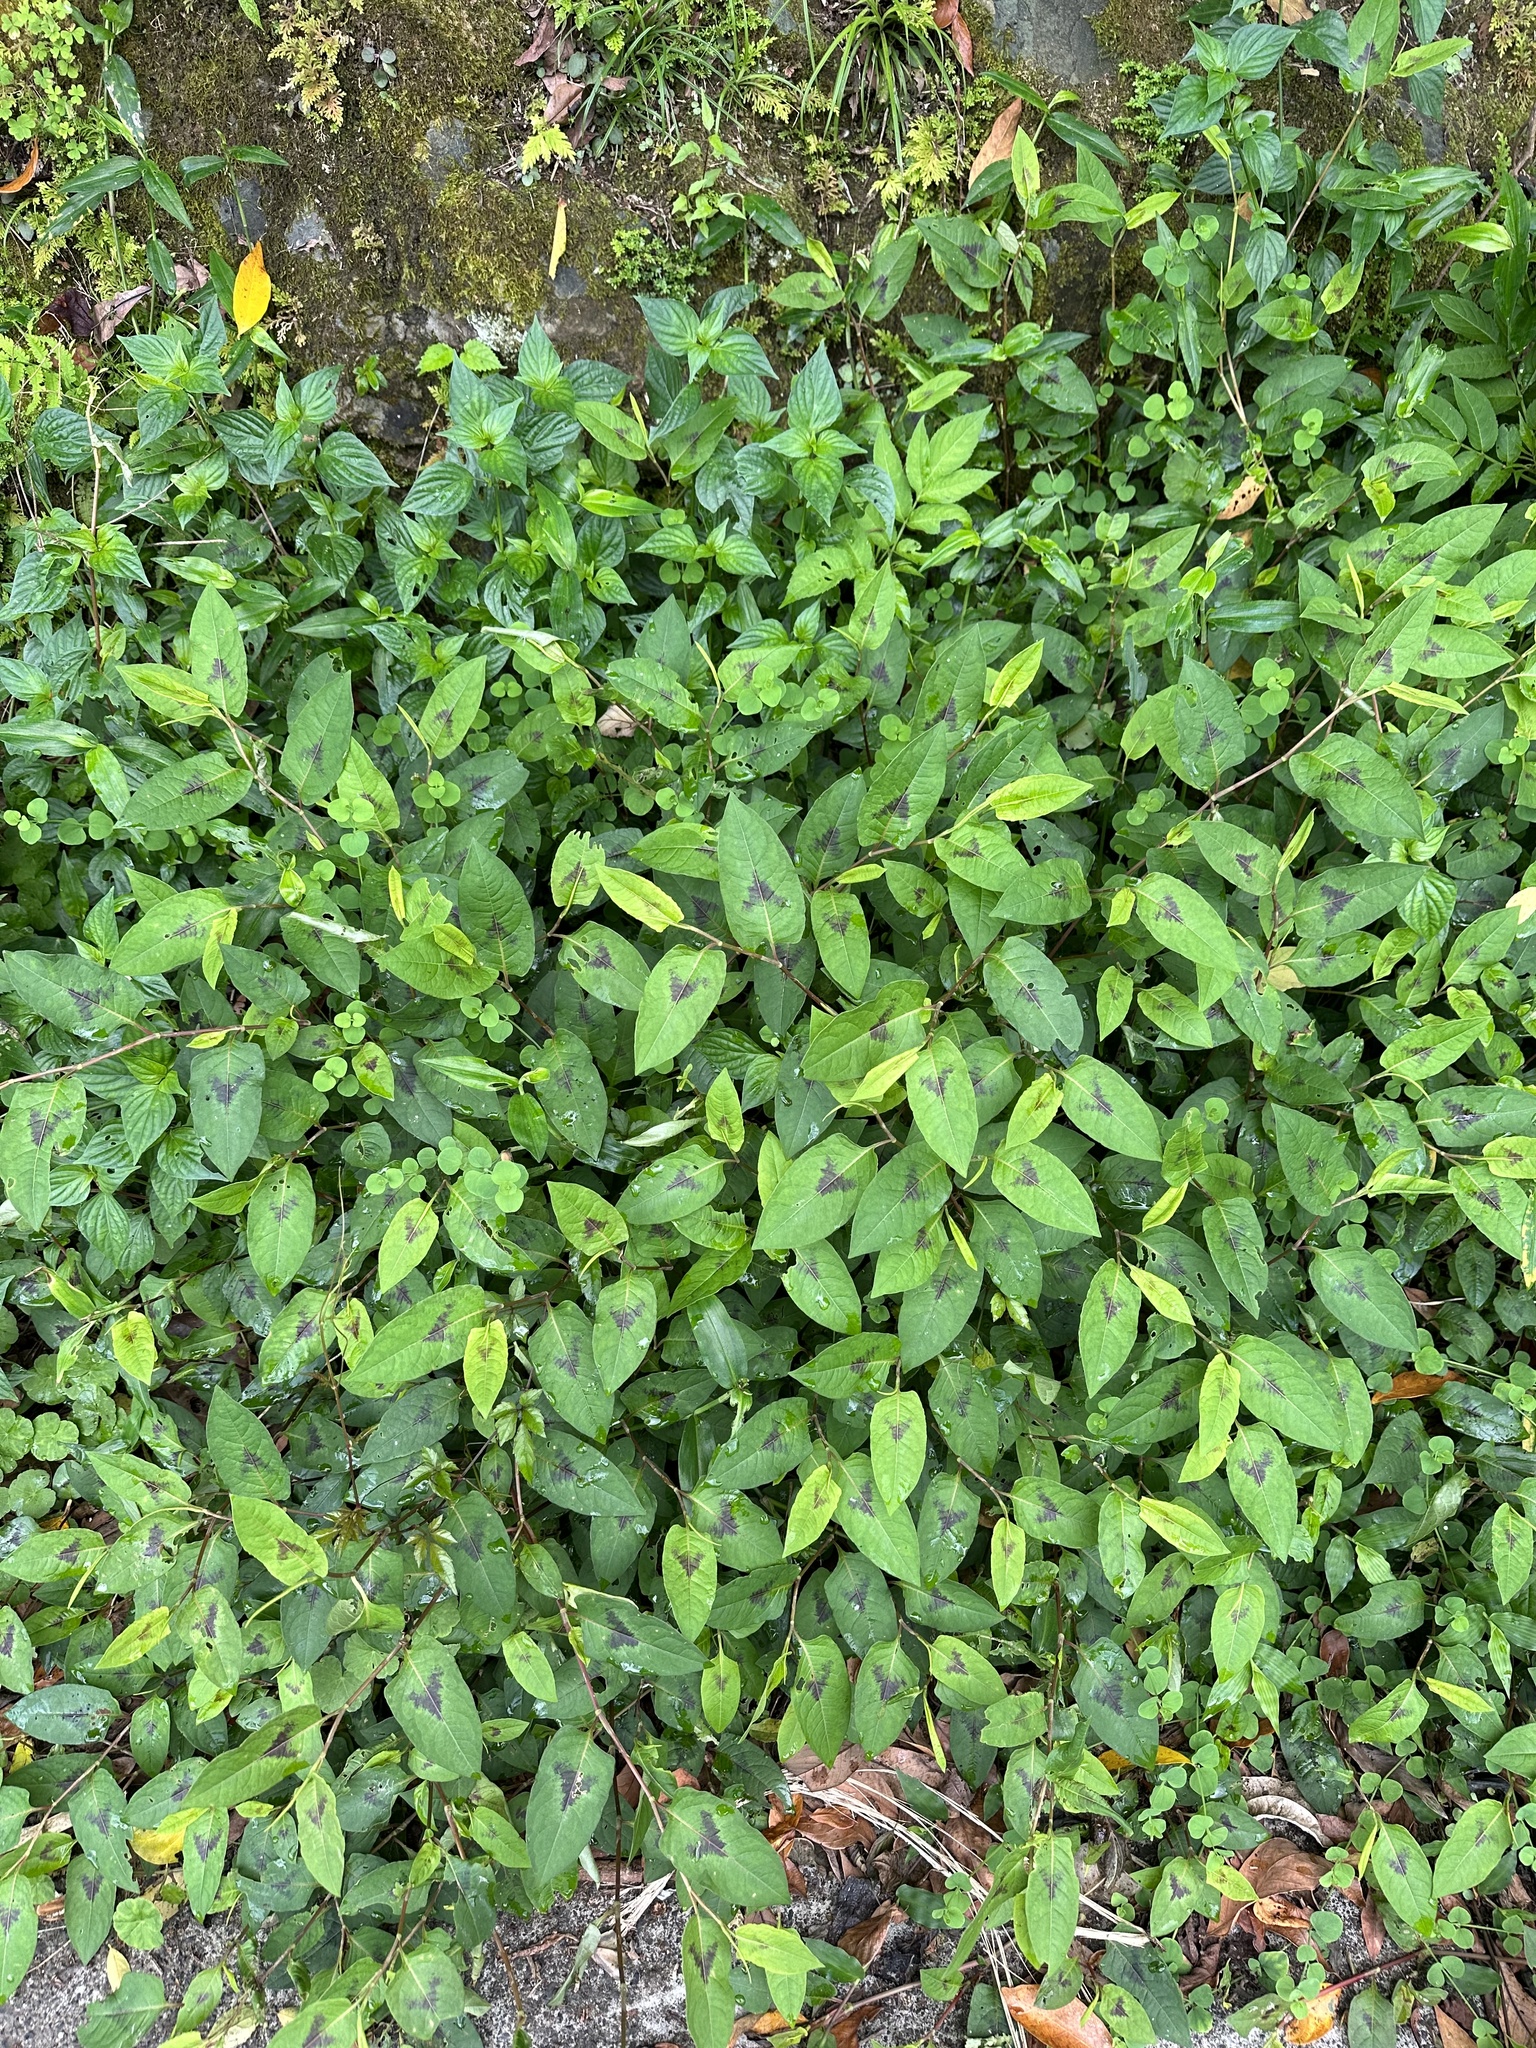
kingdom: Plantae
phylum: Tracheophyta
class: Magnoliopsida
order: Caryophyllales
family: Polygonaceae
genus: Persicaria
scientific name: Persicaria chinensis
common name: Chinese knotweed
